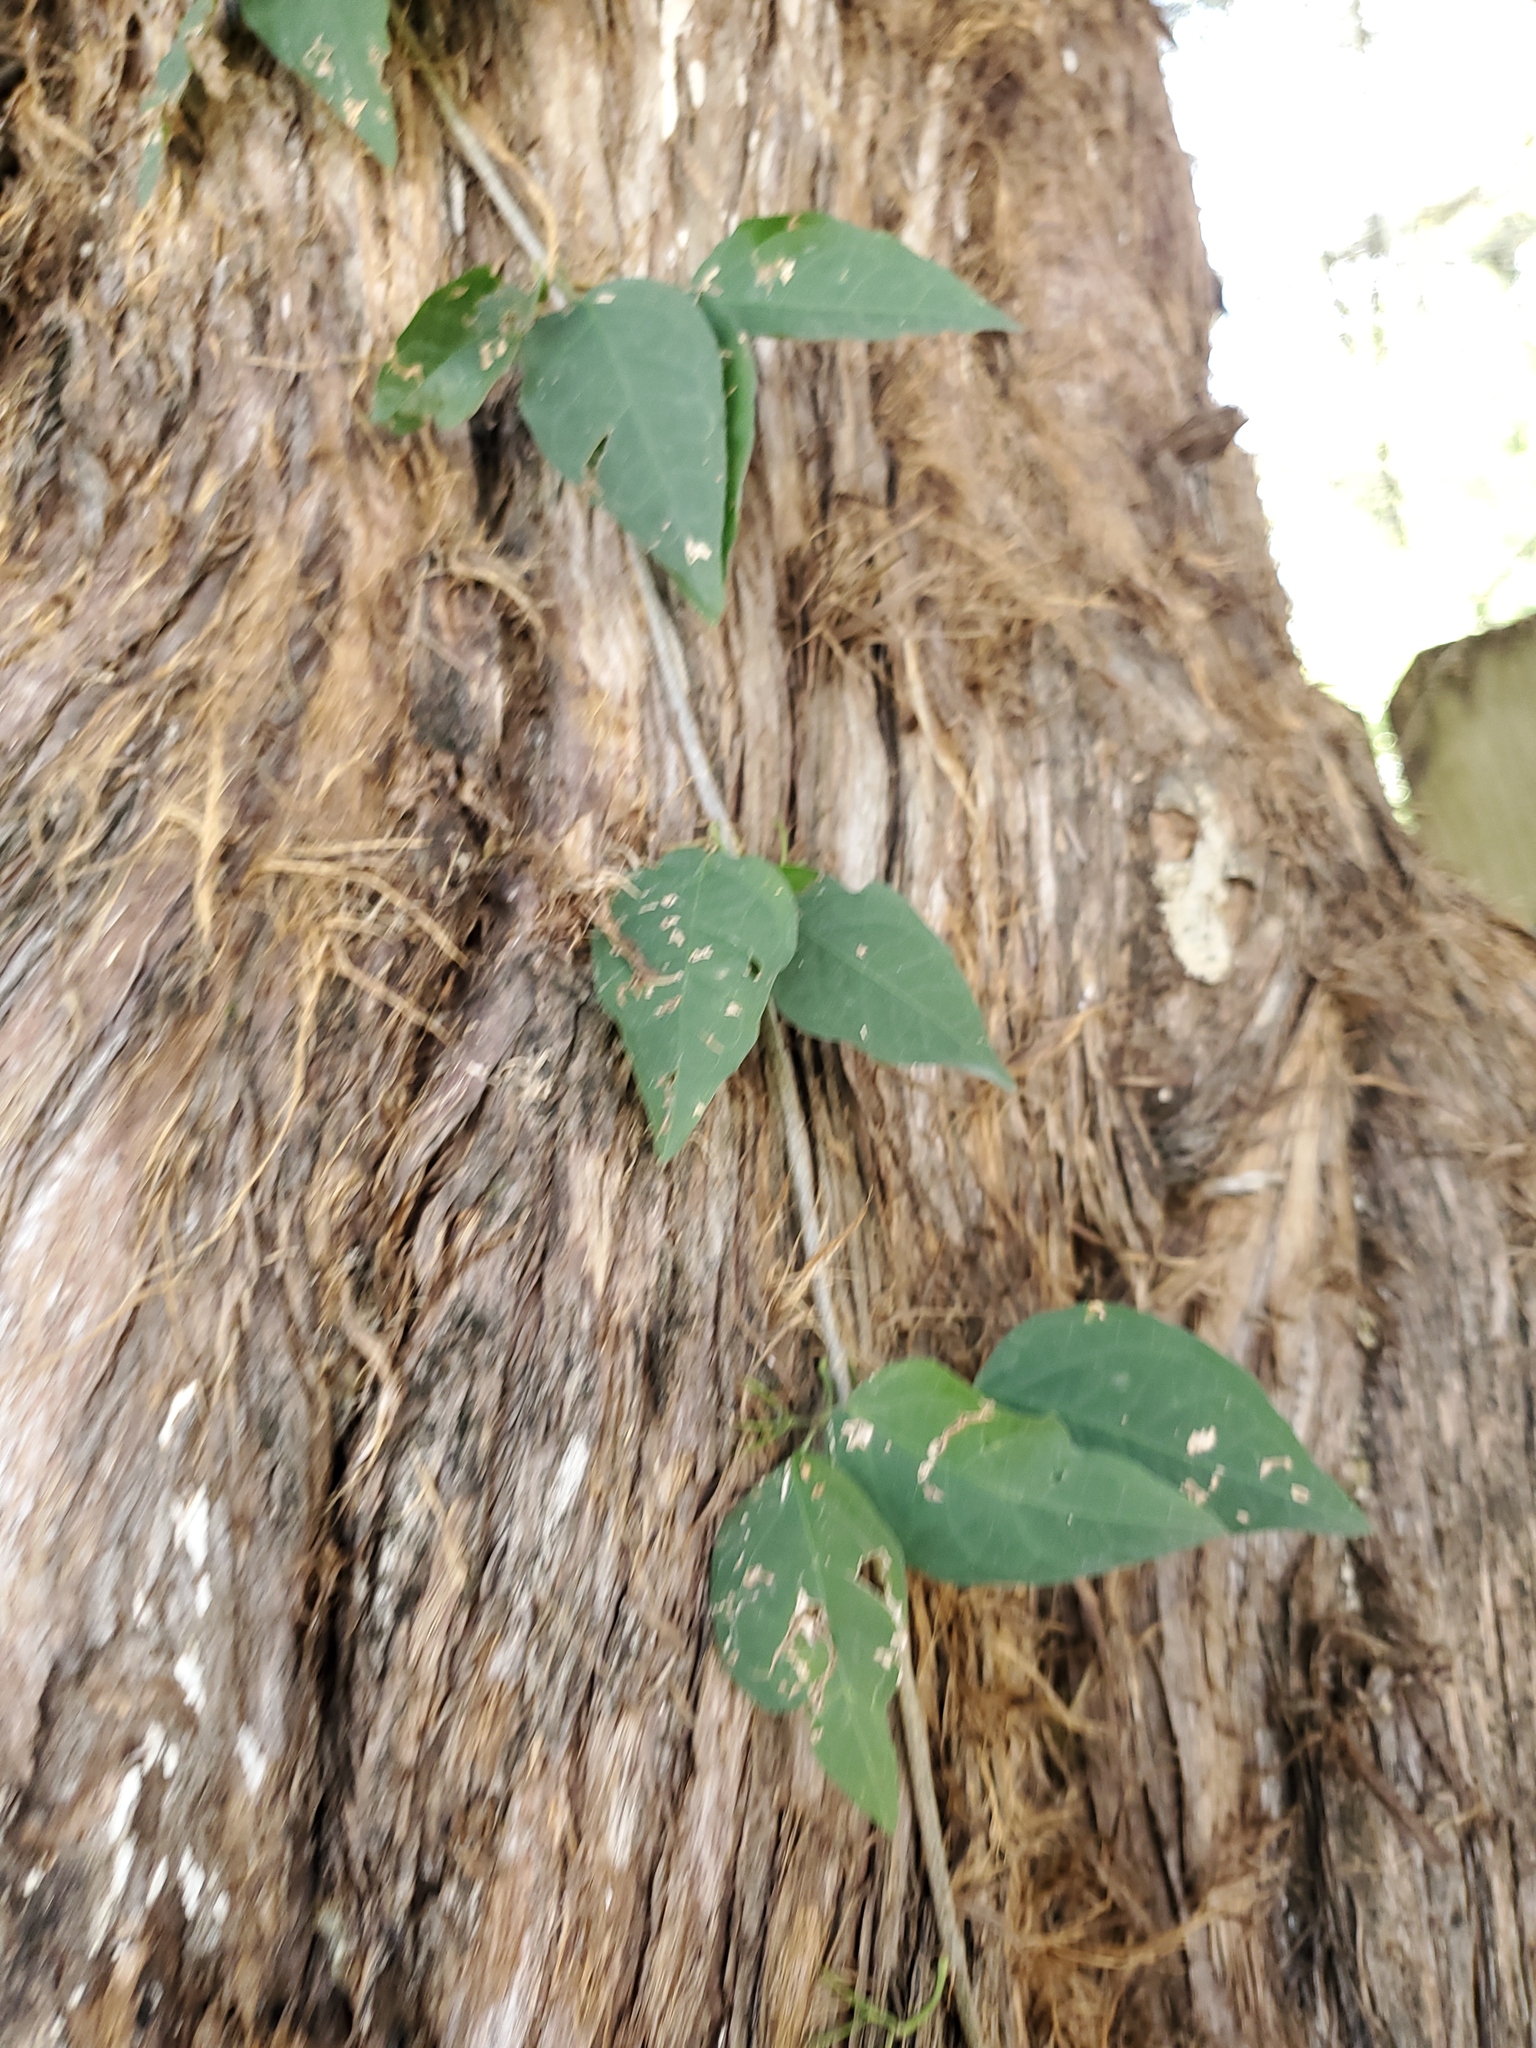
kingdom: Plantae
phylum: Tracheophyta
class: Magnoliopsida
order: Lamiales
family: Bignoniaceae
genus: Dolichandra
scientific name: Dolichandra unguis-cati
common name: Catclaw vine
